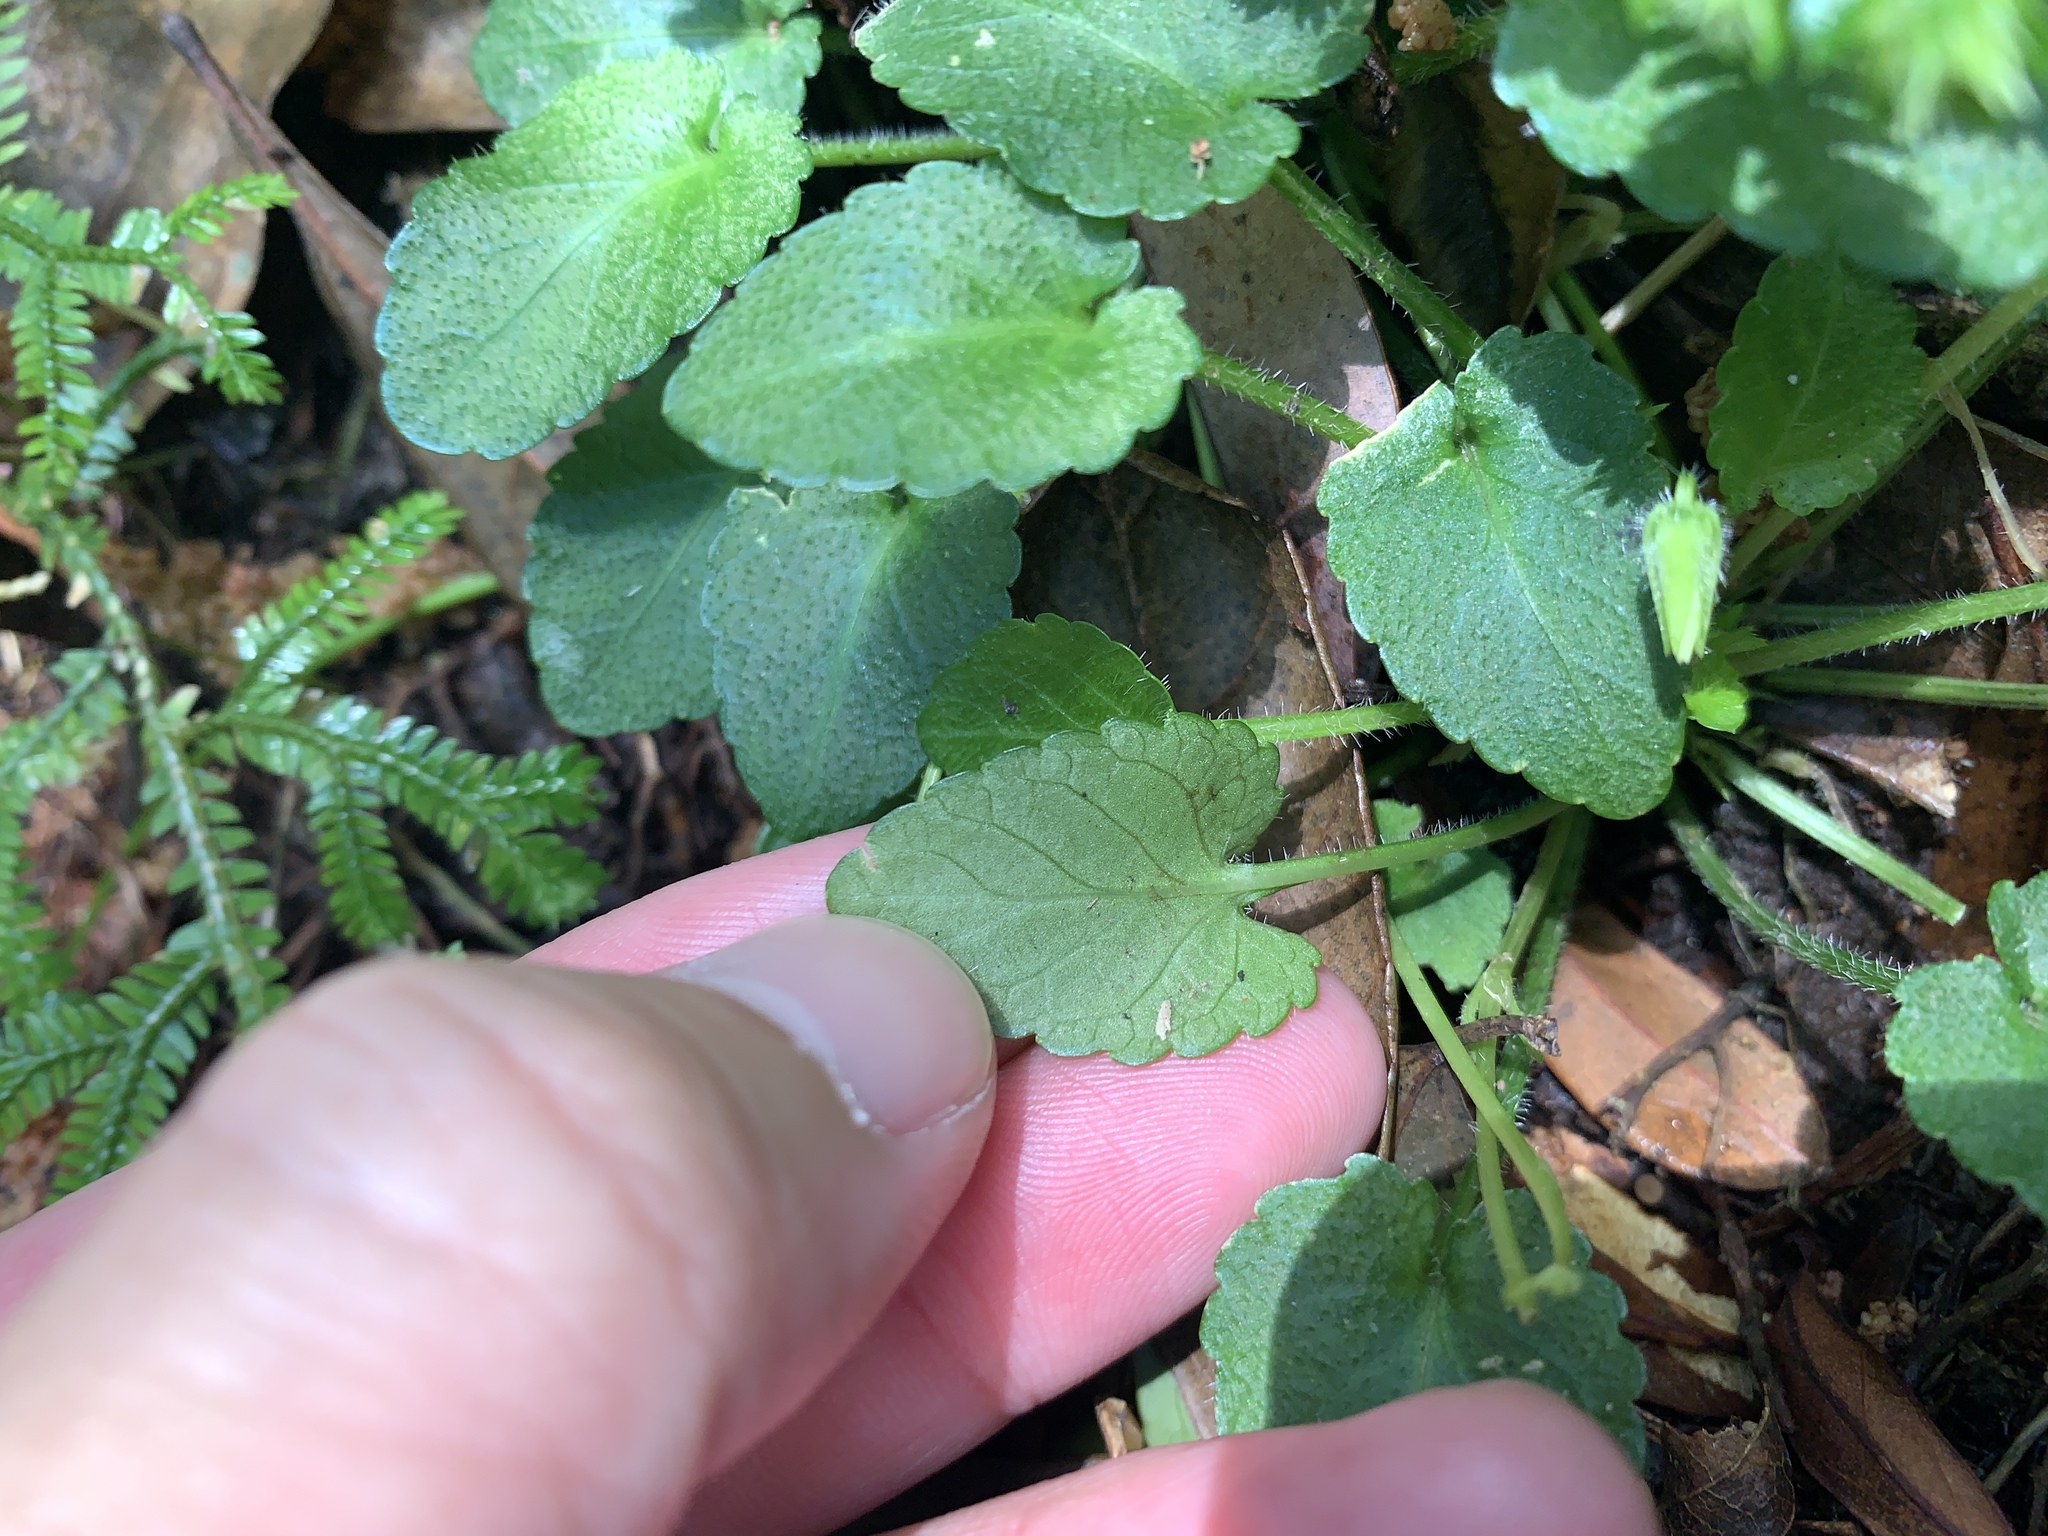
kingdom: Plantae
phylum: Tracheophyta
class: Magnoliopsida
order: Malpighiales
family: Violaceae
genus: Viola
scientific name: Viola nagasawae
